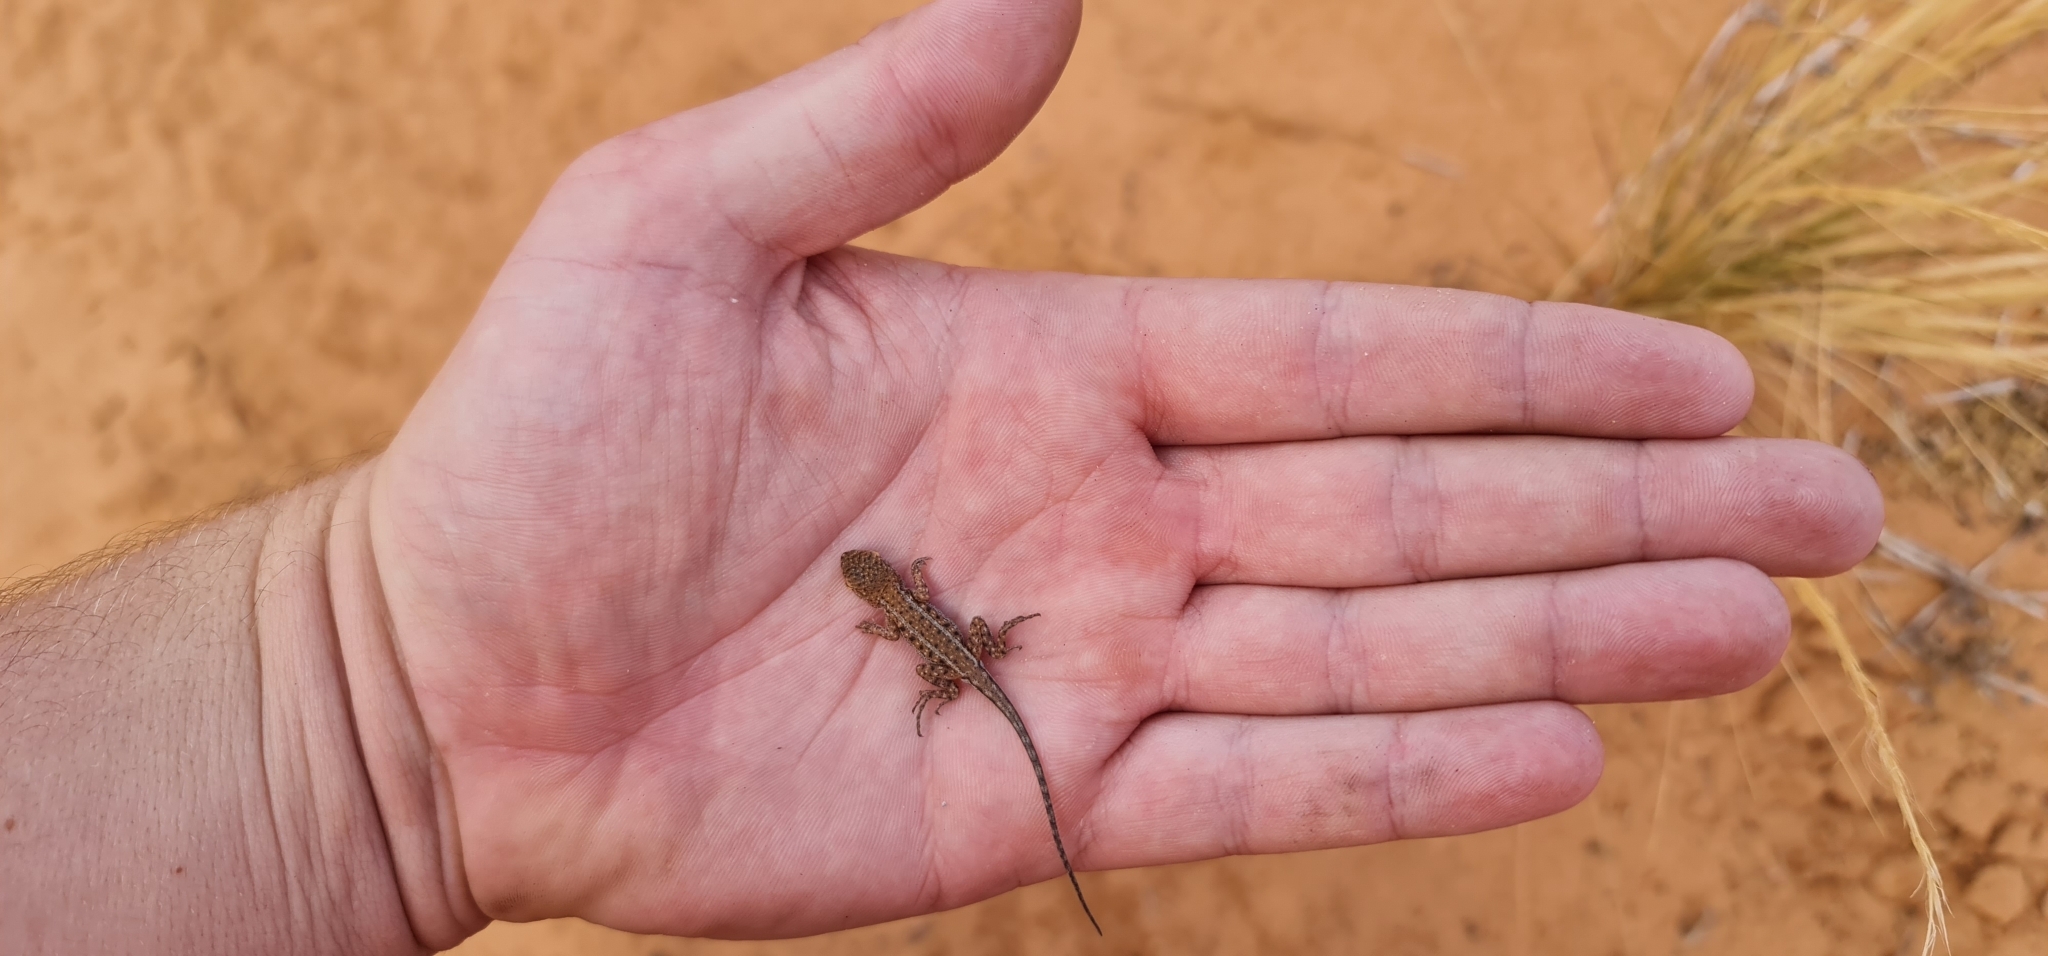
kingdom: Animalia
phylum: Chordata
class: Squamata
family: Agamidae
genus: Ctenophorus
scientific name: Ctenophorus spinodomus
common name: Eastern mallee dragon
